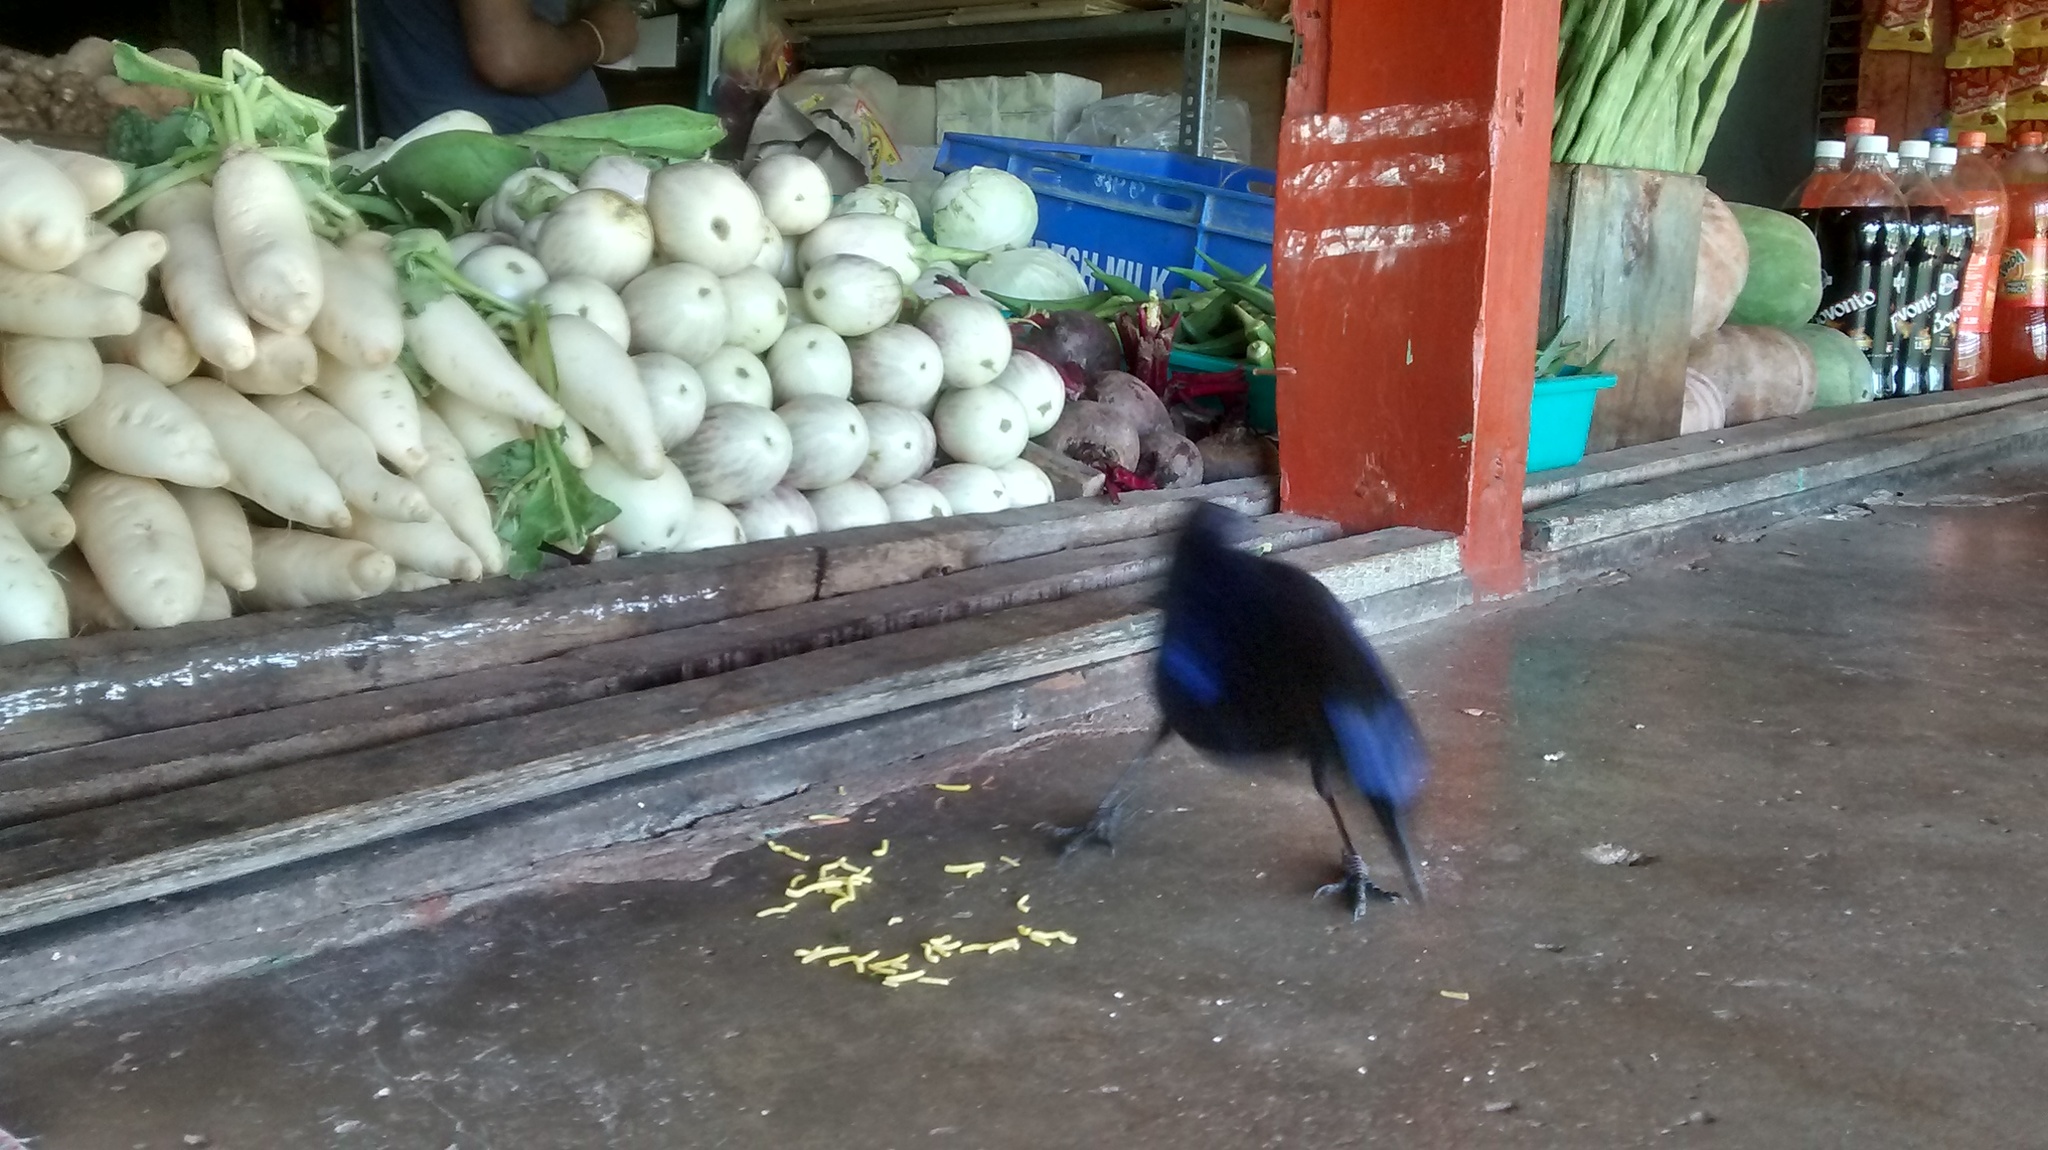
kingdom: Animalia
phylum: Chordata
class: Aves
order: Passeriformes
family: Muscicapidae
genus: Myophonus
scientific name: Myophonus horsfieldii
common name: Malabar whistling-thrush
